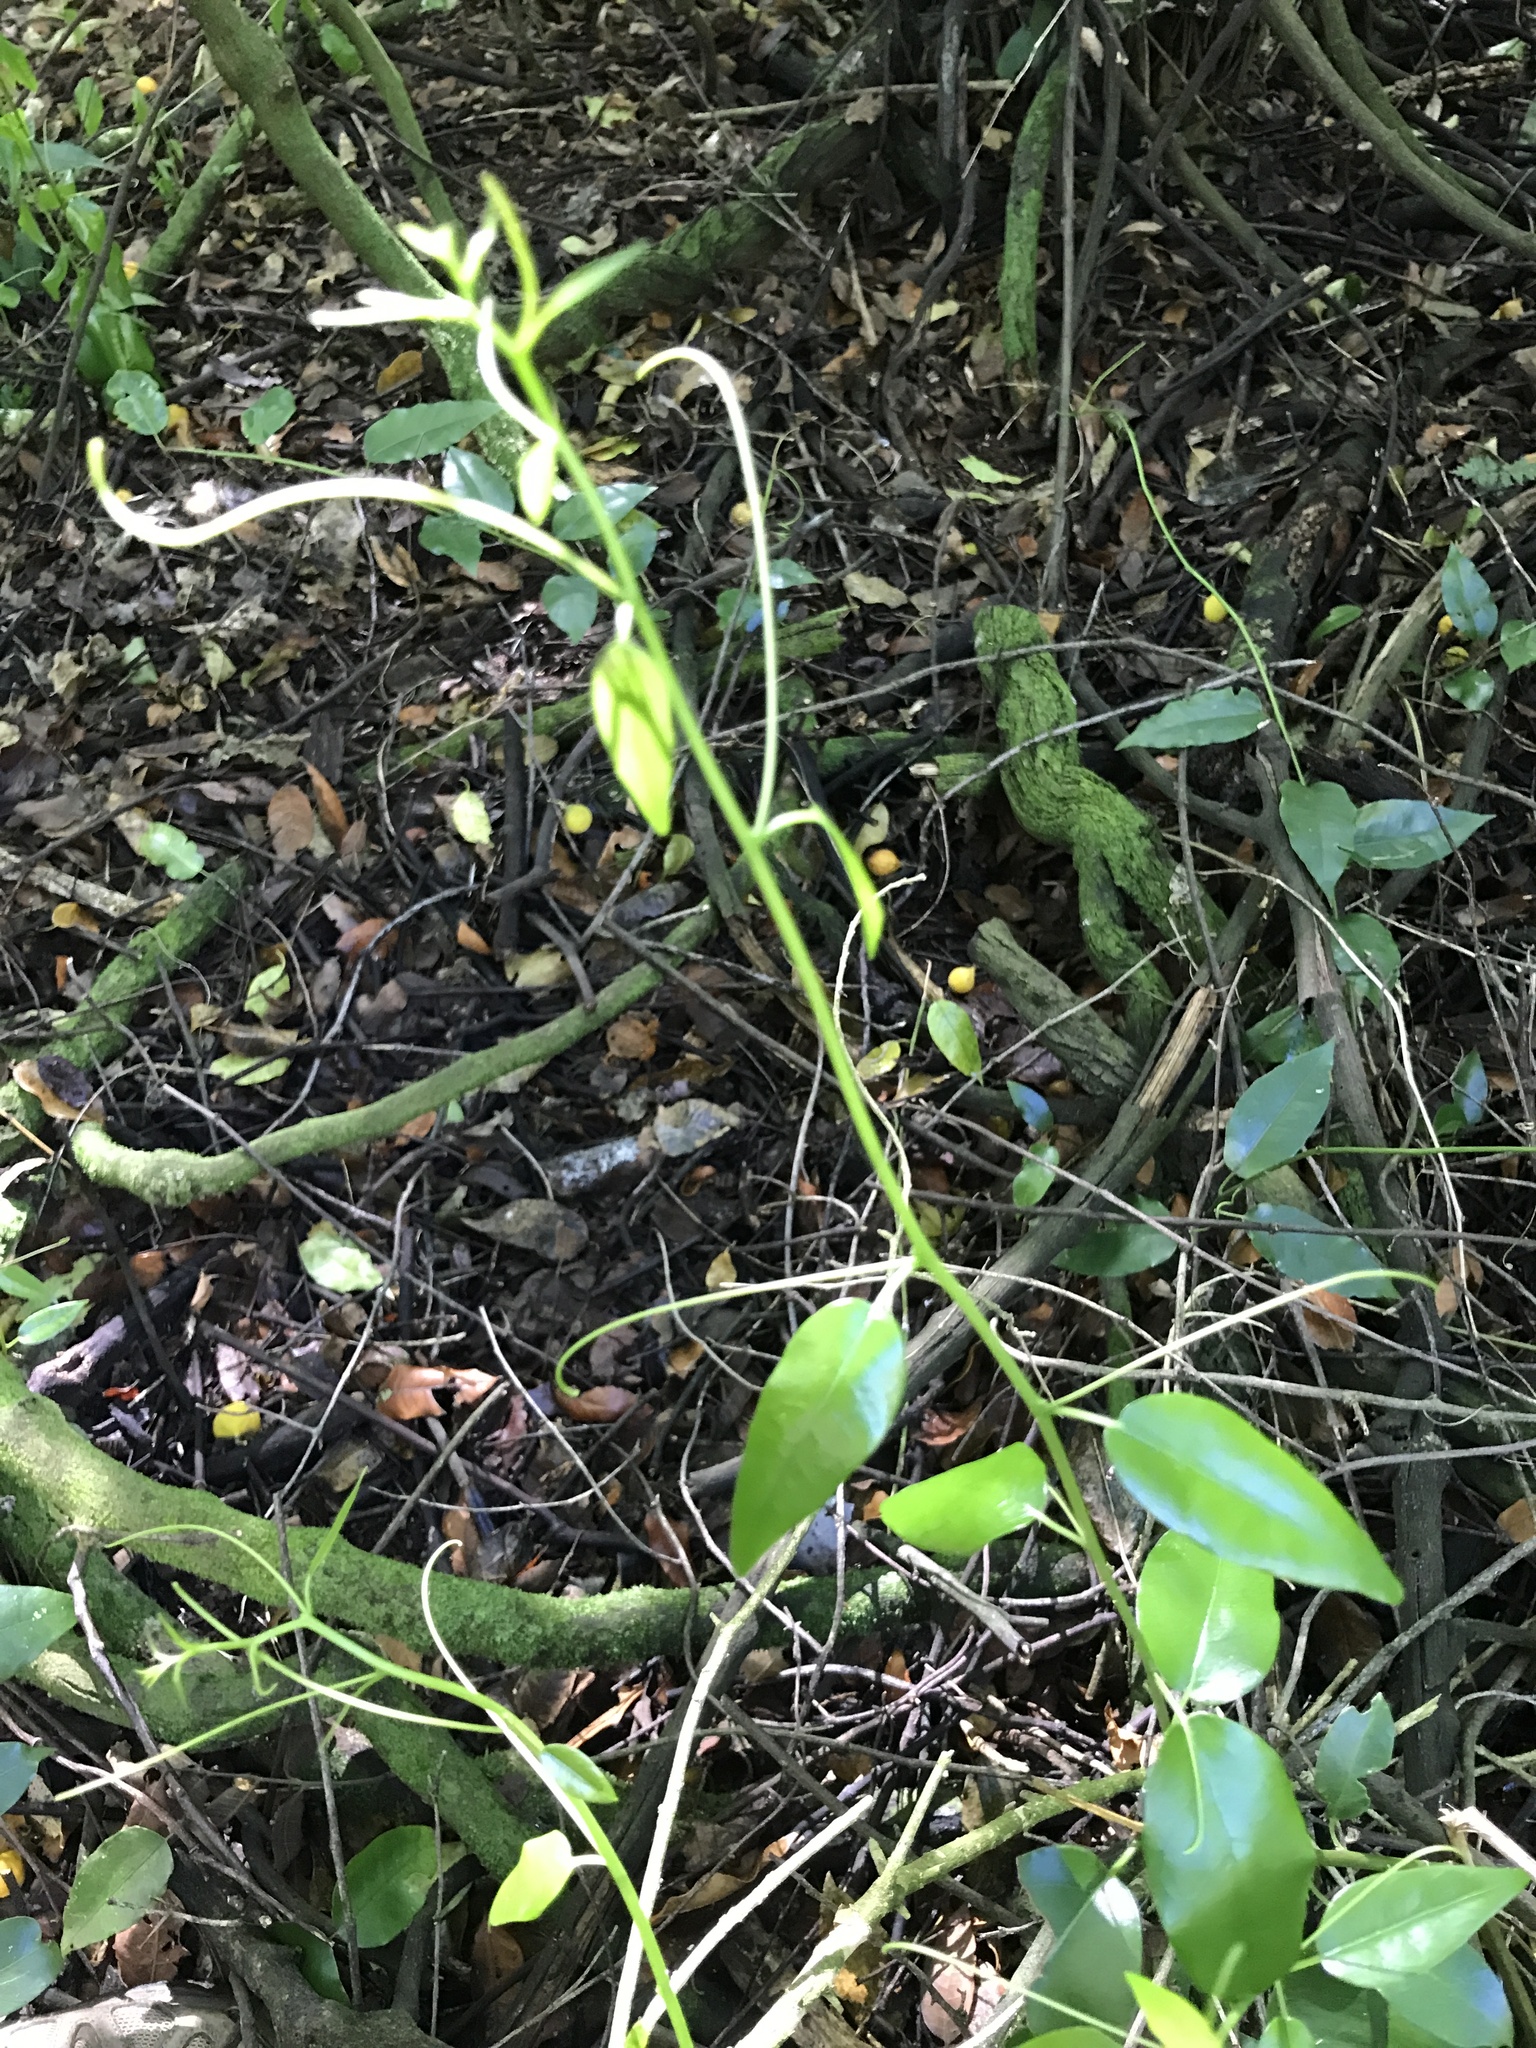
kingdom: Plantae
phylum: Tracheophyta
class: Magnoliopsida
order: Malpighiales
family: Passifloraceae
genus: Passiflora
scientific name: Passiflora tetrandra
